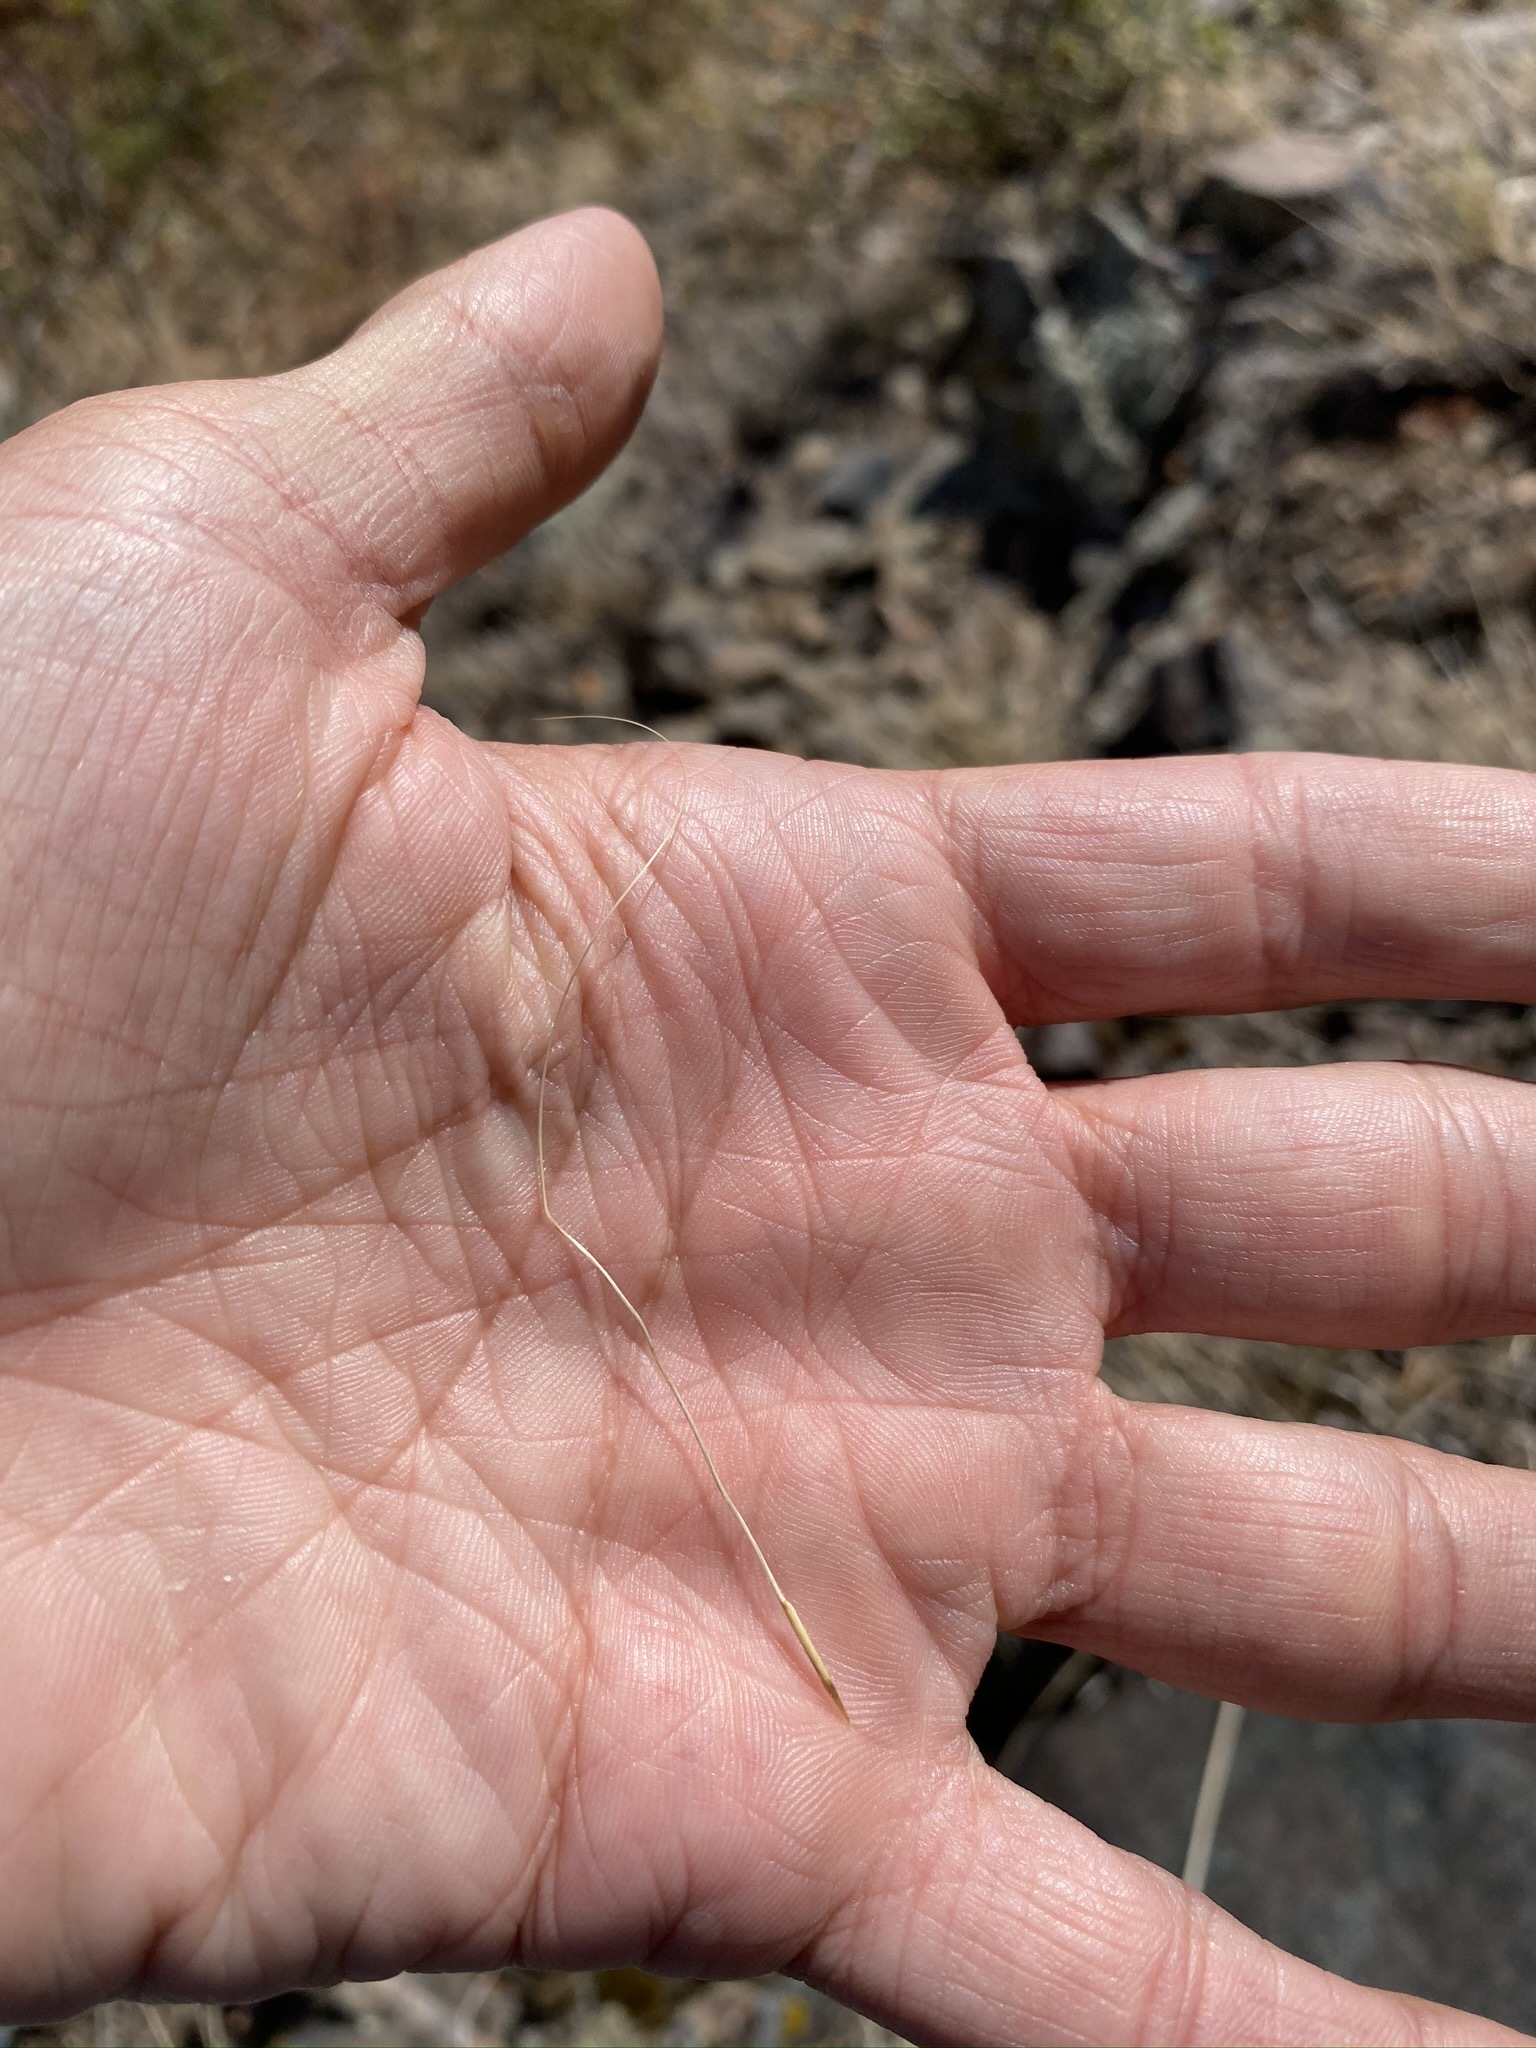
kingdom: Plantae
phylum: Tracheophyta
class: Liliopsida
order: Poales
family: Poaceae
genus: Hesperostipa
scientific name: Hesperostipa comata
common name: Needle-and-thread grass
